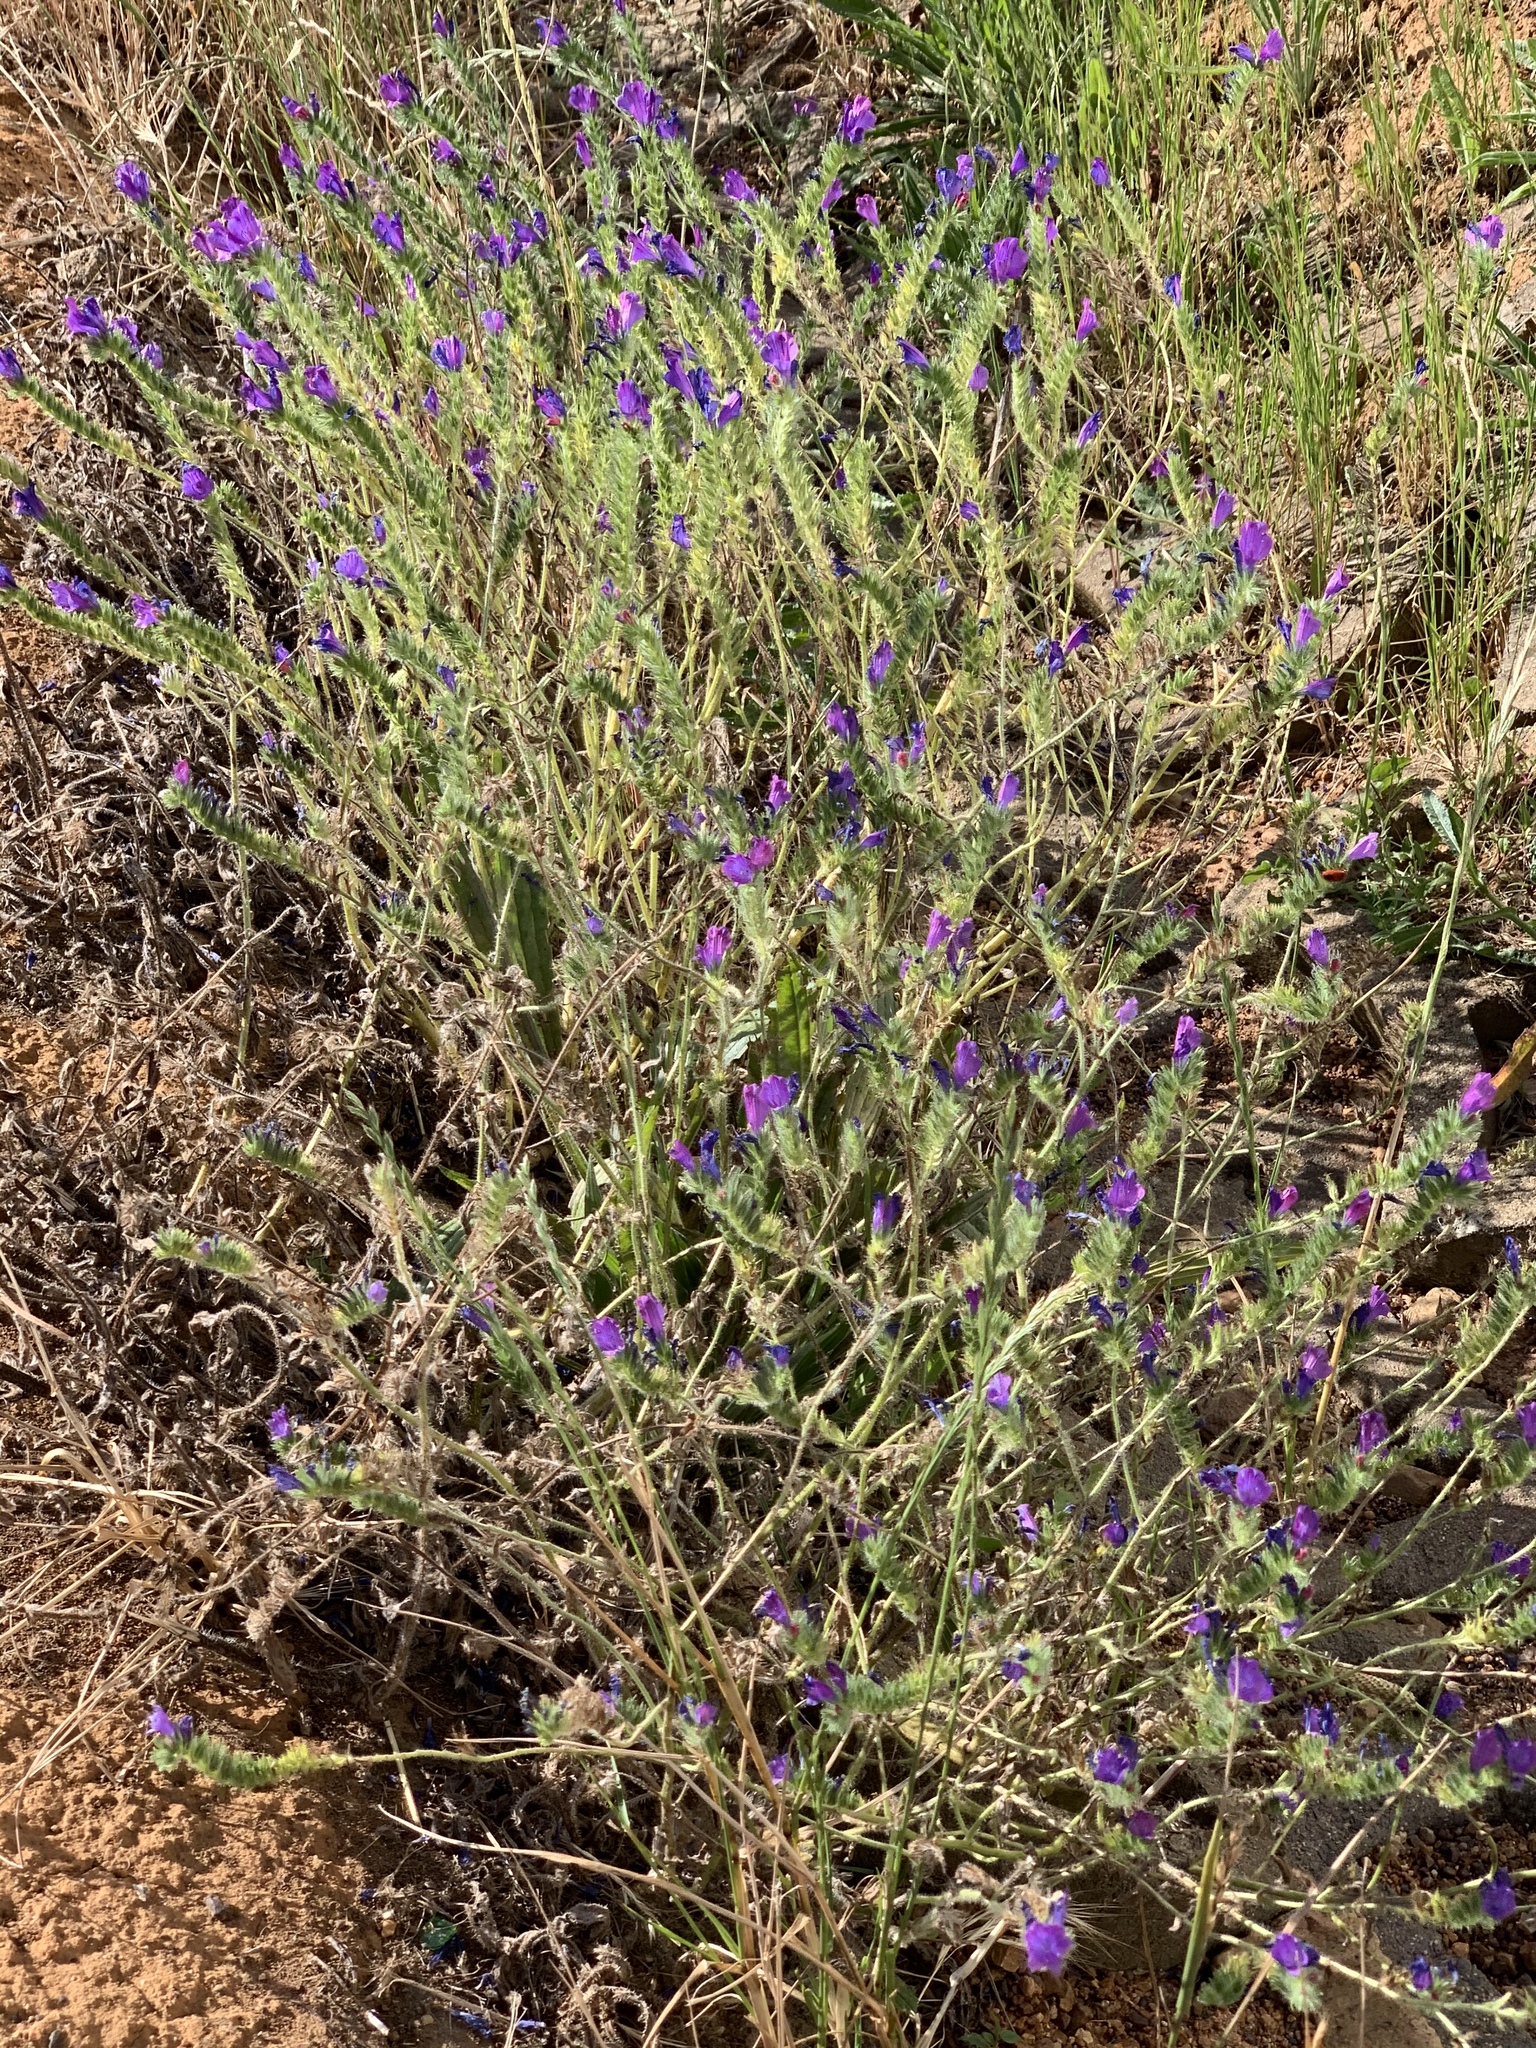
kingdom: Plantae
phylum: Tracheophyta
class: Magnoliopsida
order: Boraginales
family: Boraginaceae
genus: Echium
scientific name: Echium plantagineum
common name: Purple viper's-bugloss
